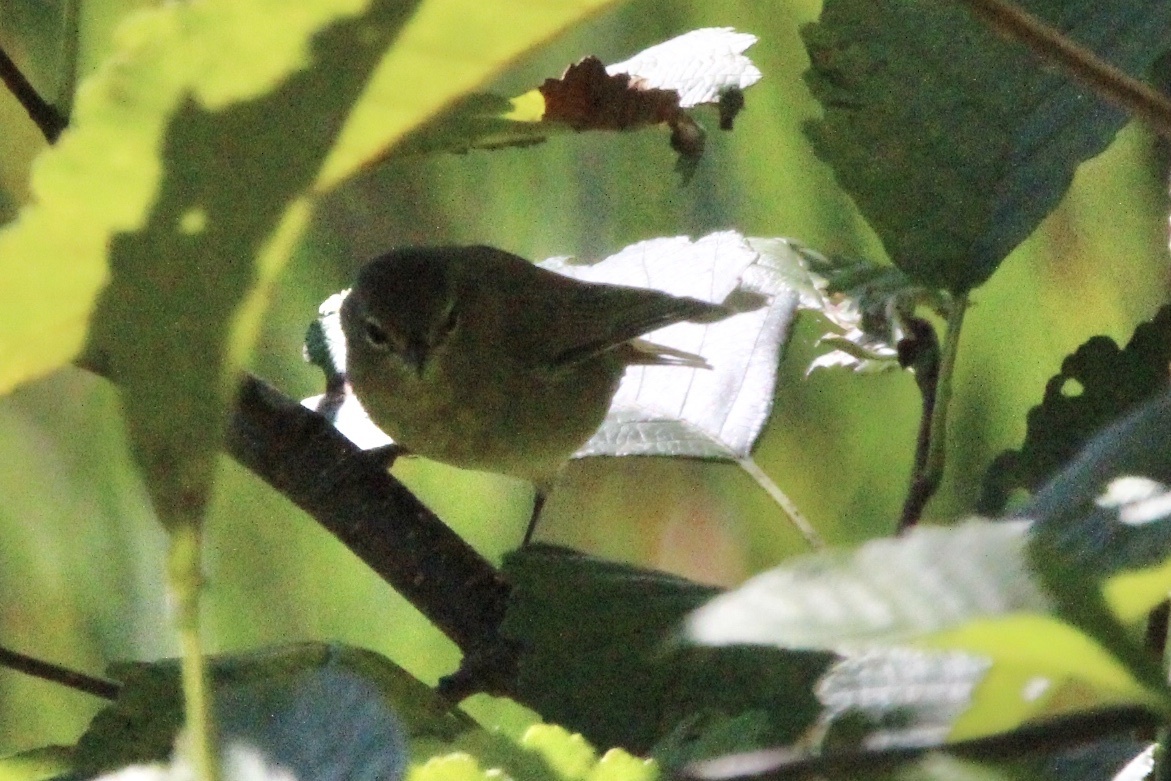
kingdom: Animalia
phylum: Chordata
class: Aves
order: Passeriformes
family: Parulidae
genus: Leiothlypis
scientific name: Leiothlypis celata
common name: Orange-crowned warbler
